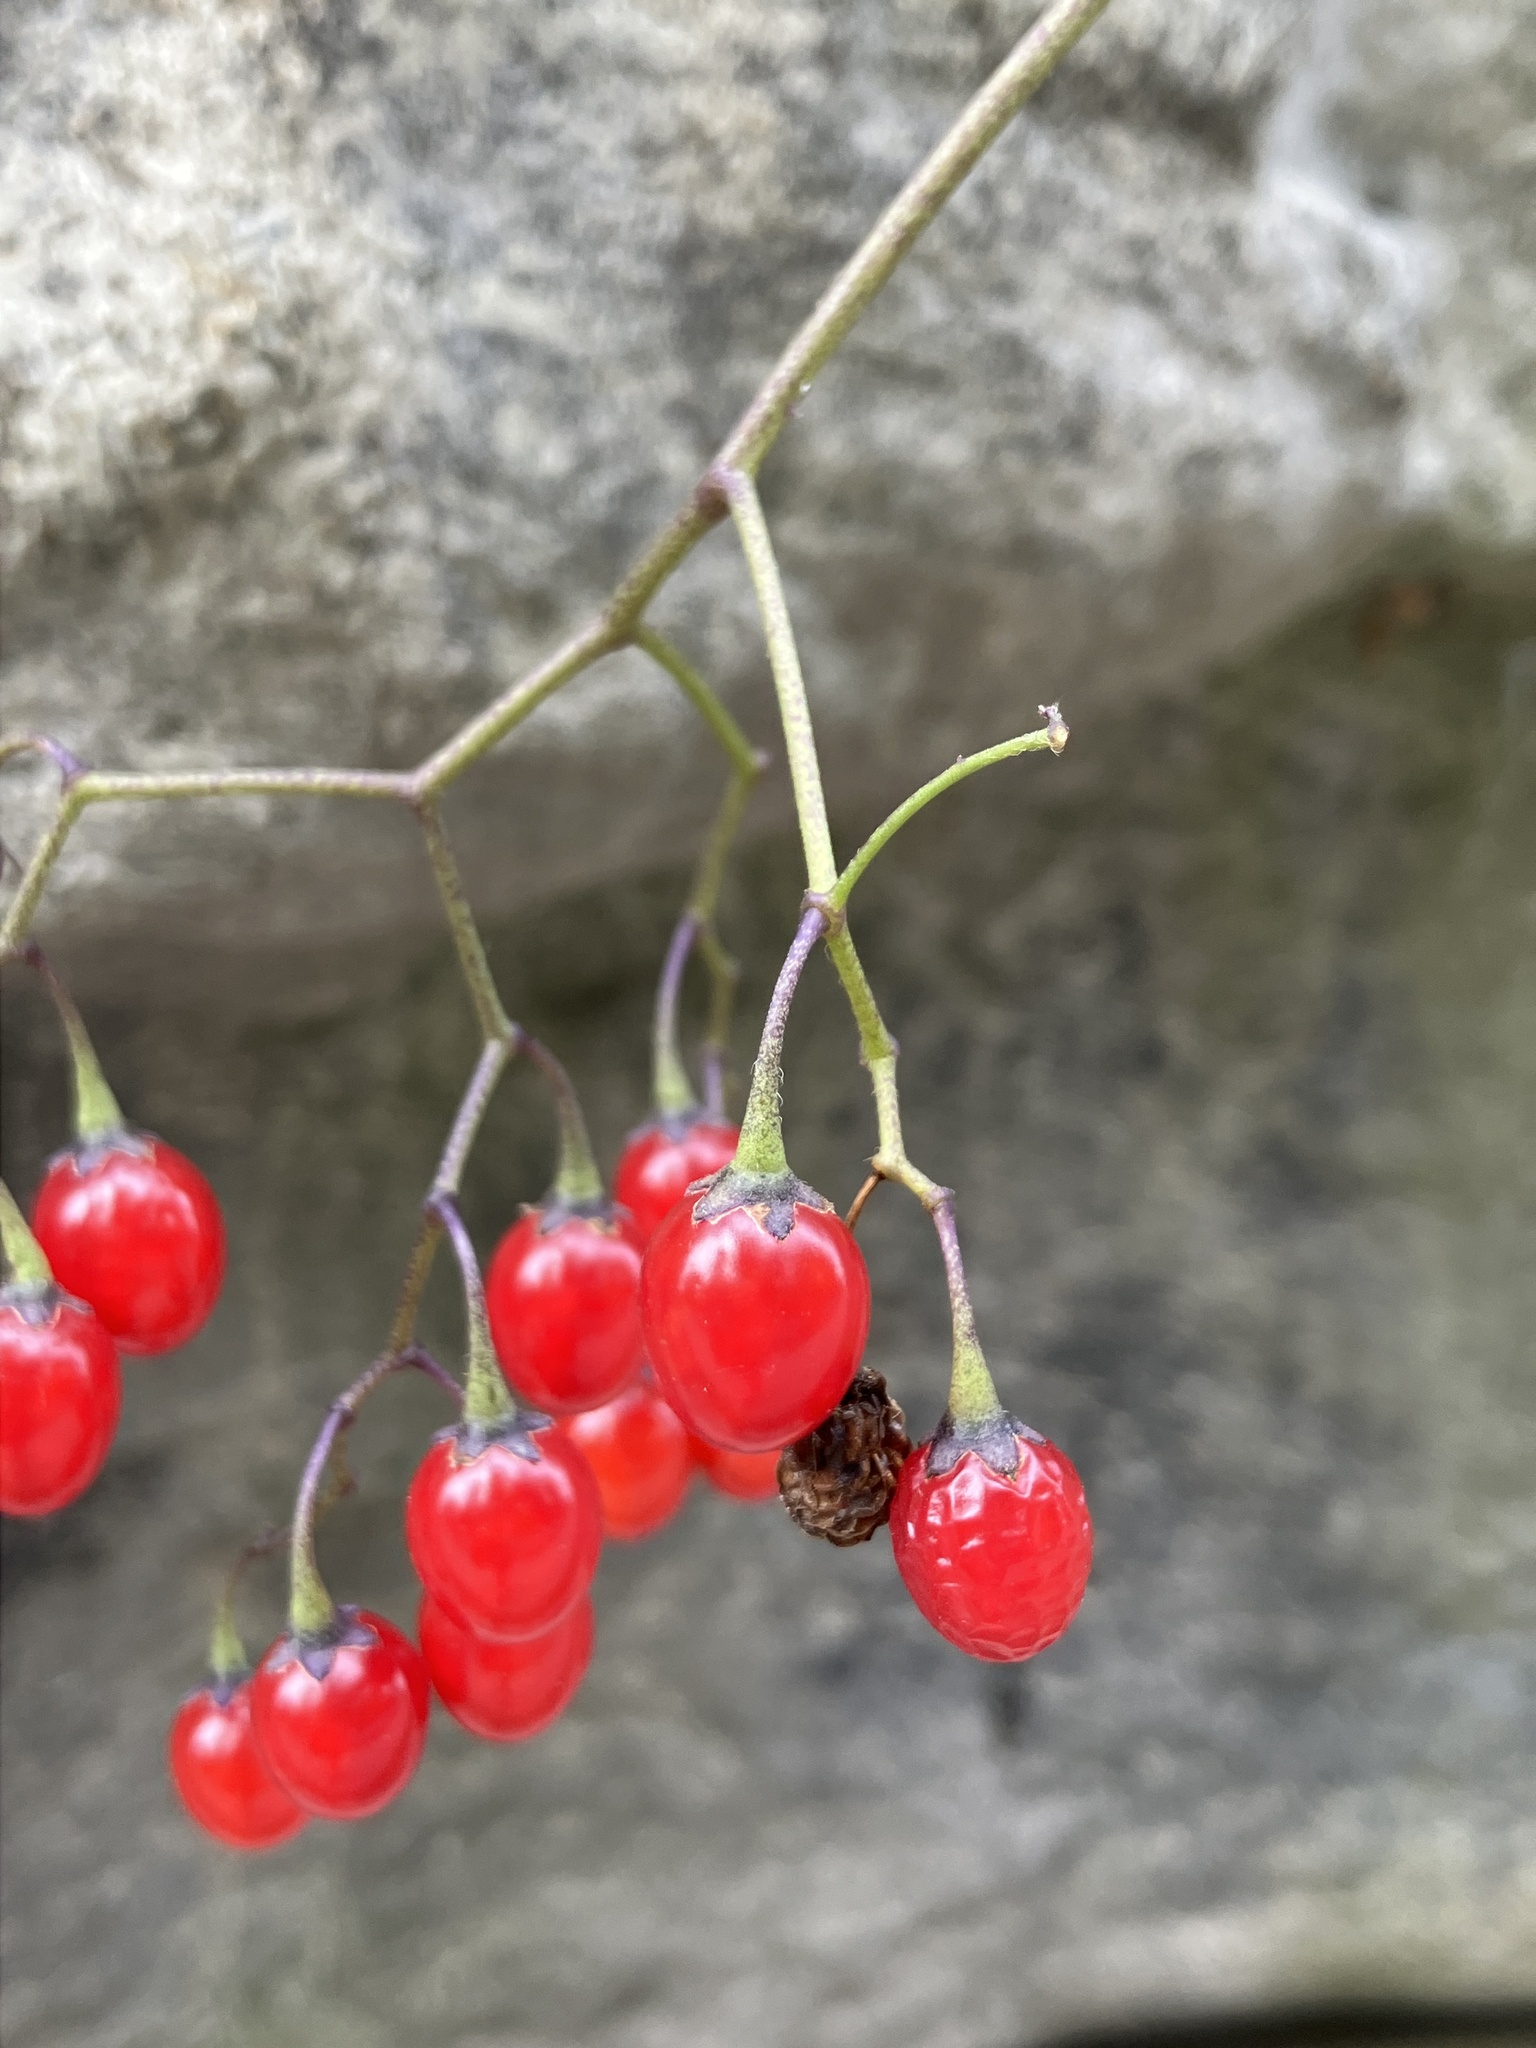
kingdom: Plantae
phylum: Tracheophyta
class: Magnoliopsida
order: Solanales
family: Solanaceae
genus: Solanum
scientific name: Solanum dulcamara
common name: Climbing nightshade
